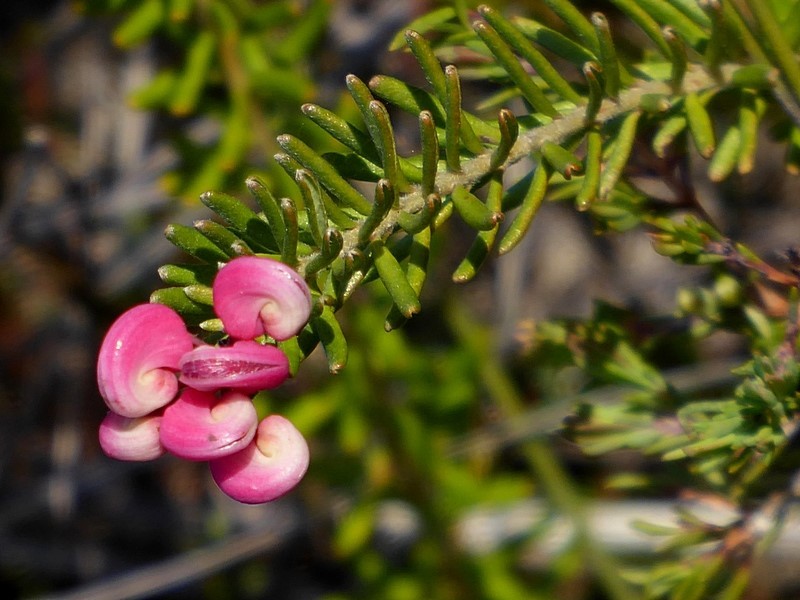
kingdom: Plantae
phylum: Tracheophyta
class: Magnoliopsida
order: Proteales
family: Proteaceae
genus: Grevillea
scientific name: Grevillea lanigera
